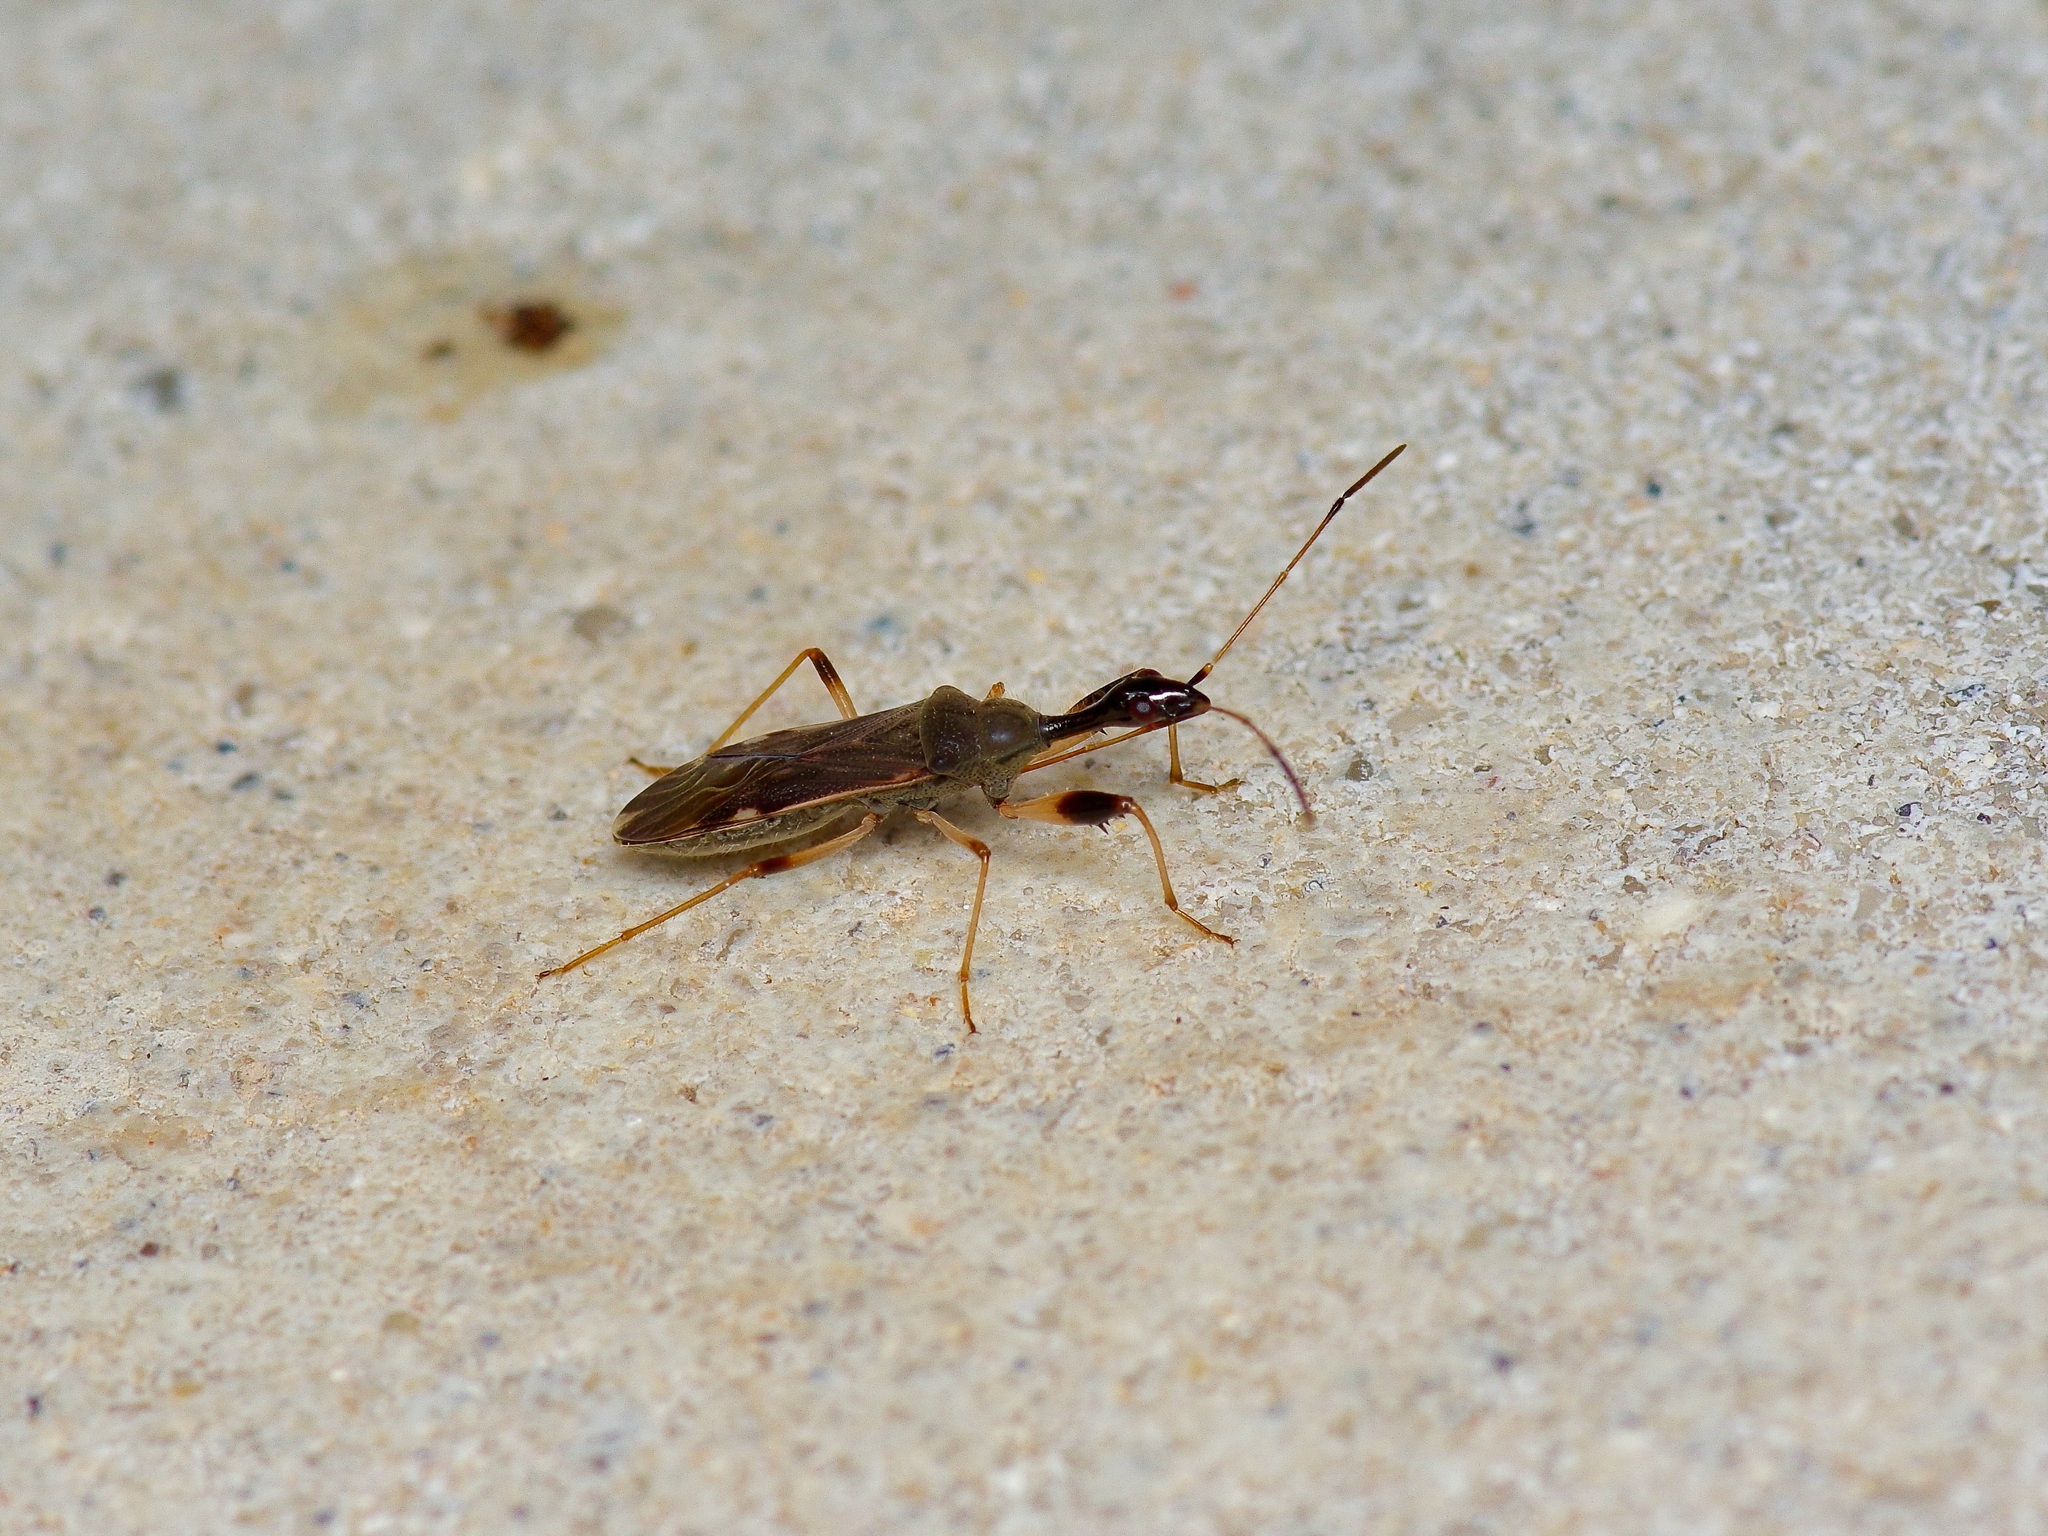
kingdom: Animalia
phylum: Arthropoda
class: Insecta
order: Hemiptera
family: Rhyparochromidae
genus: Myodocha
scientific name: Myodocha serripes
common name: Long-necked seed bug
